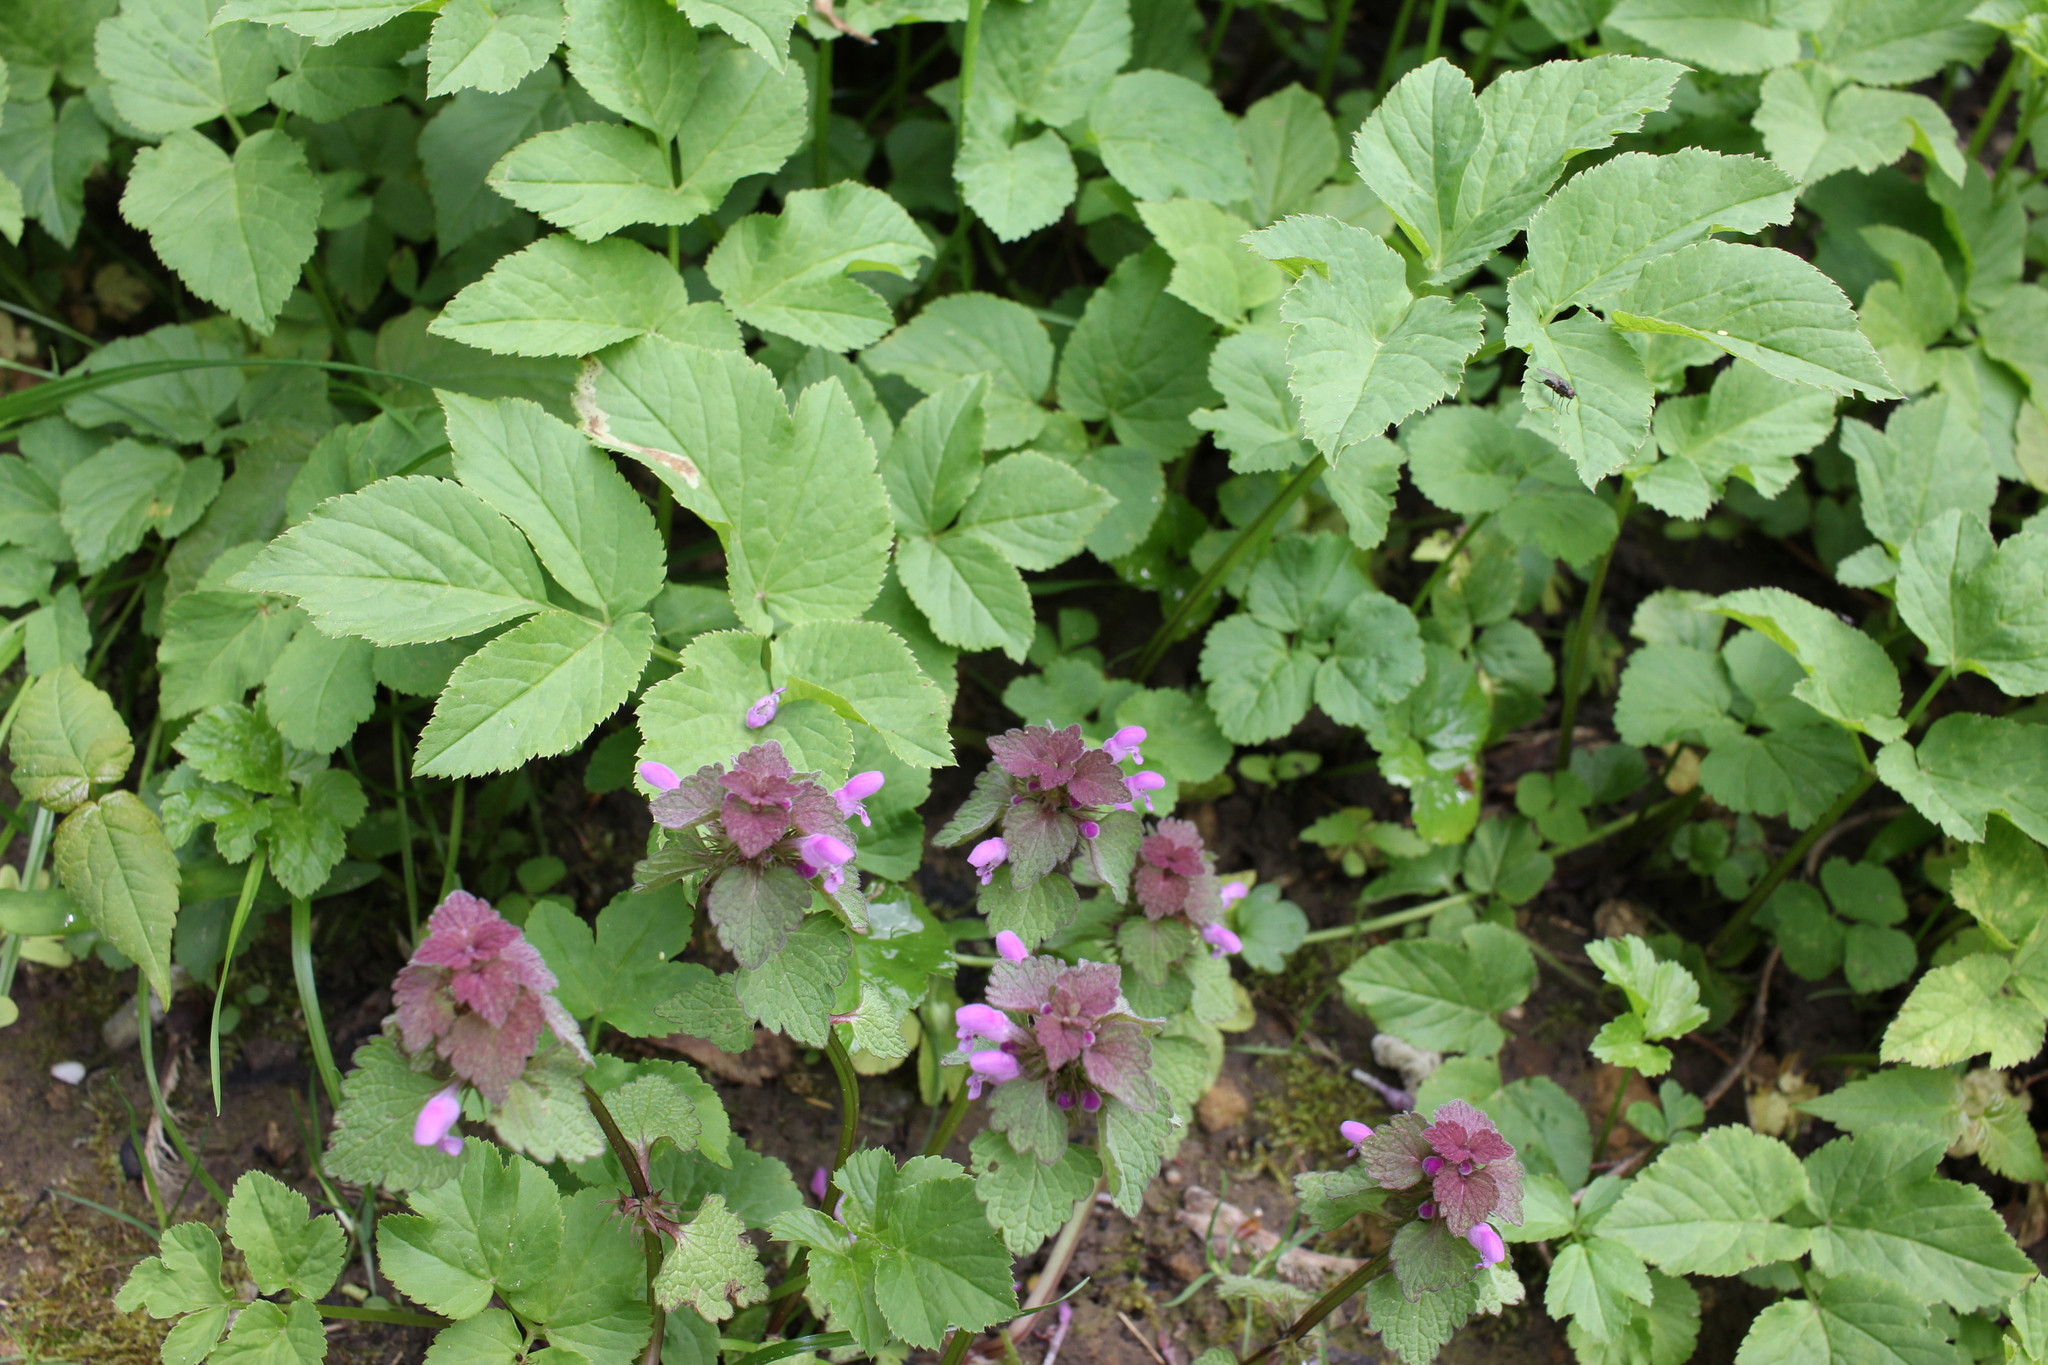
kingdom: Plantae
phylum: Tracheophyta
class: Magnoliopsida
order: Lamiales
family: Lamiaceae
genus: Lamium
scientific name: Lamium purpureum
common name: Red dead-nettle
